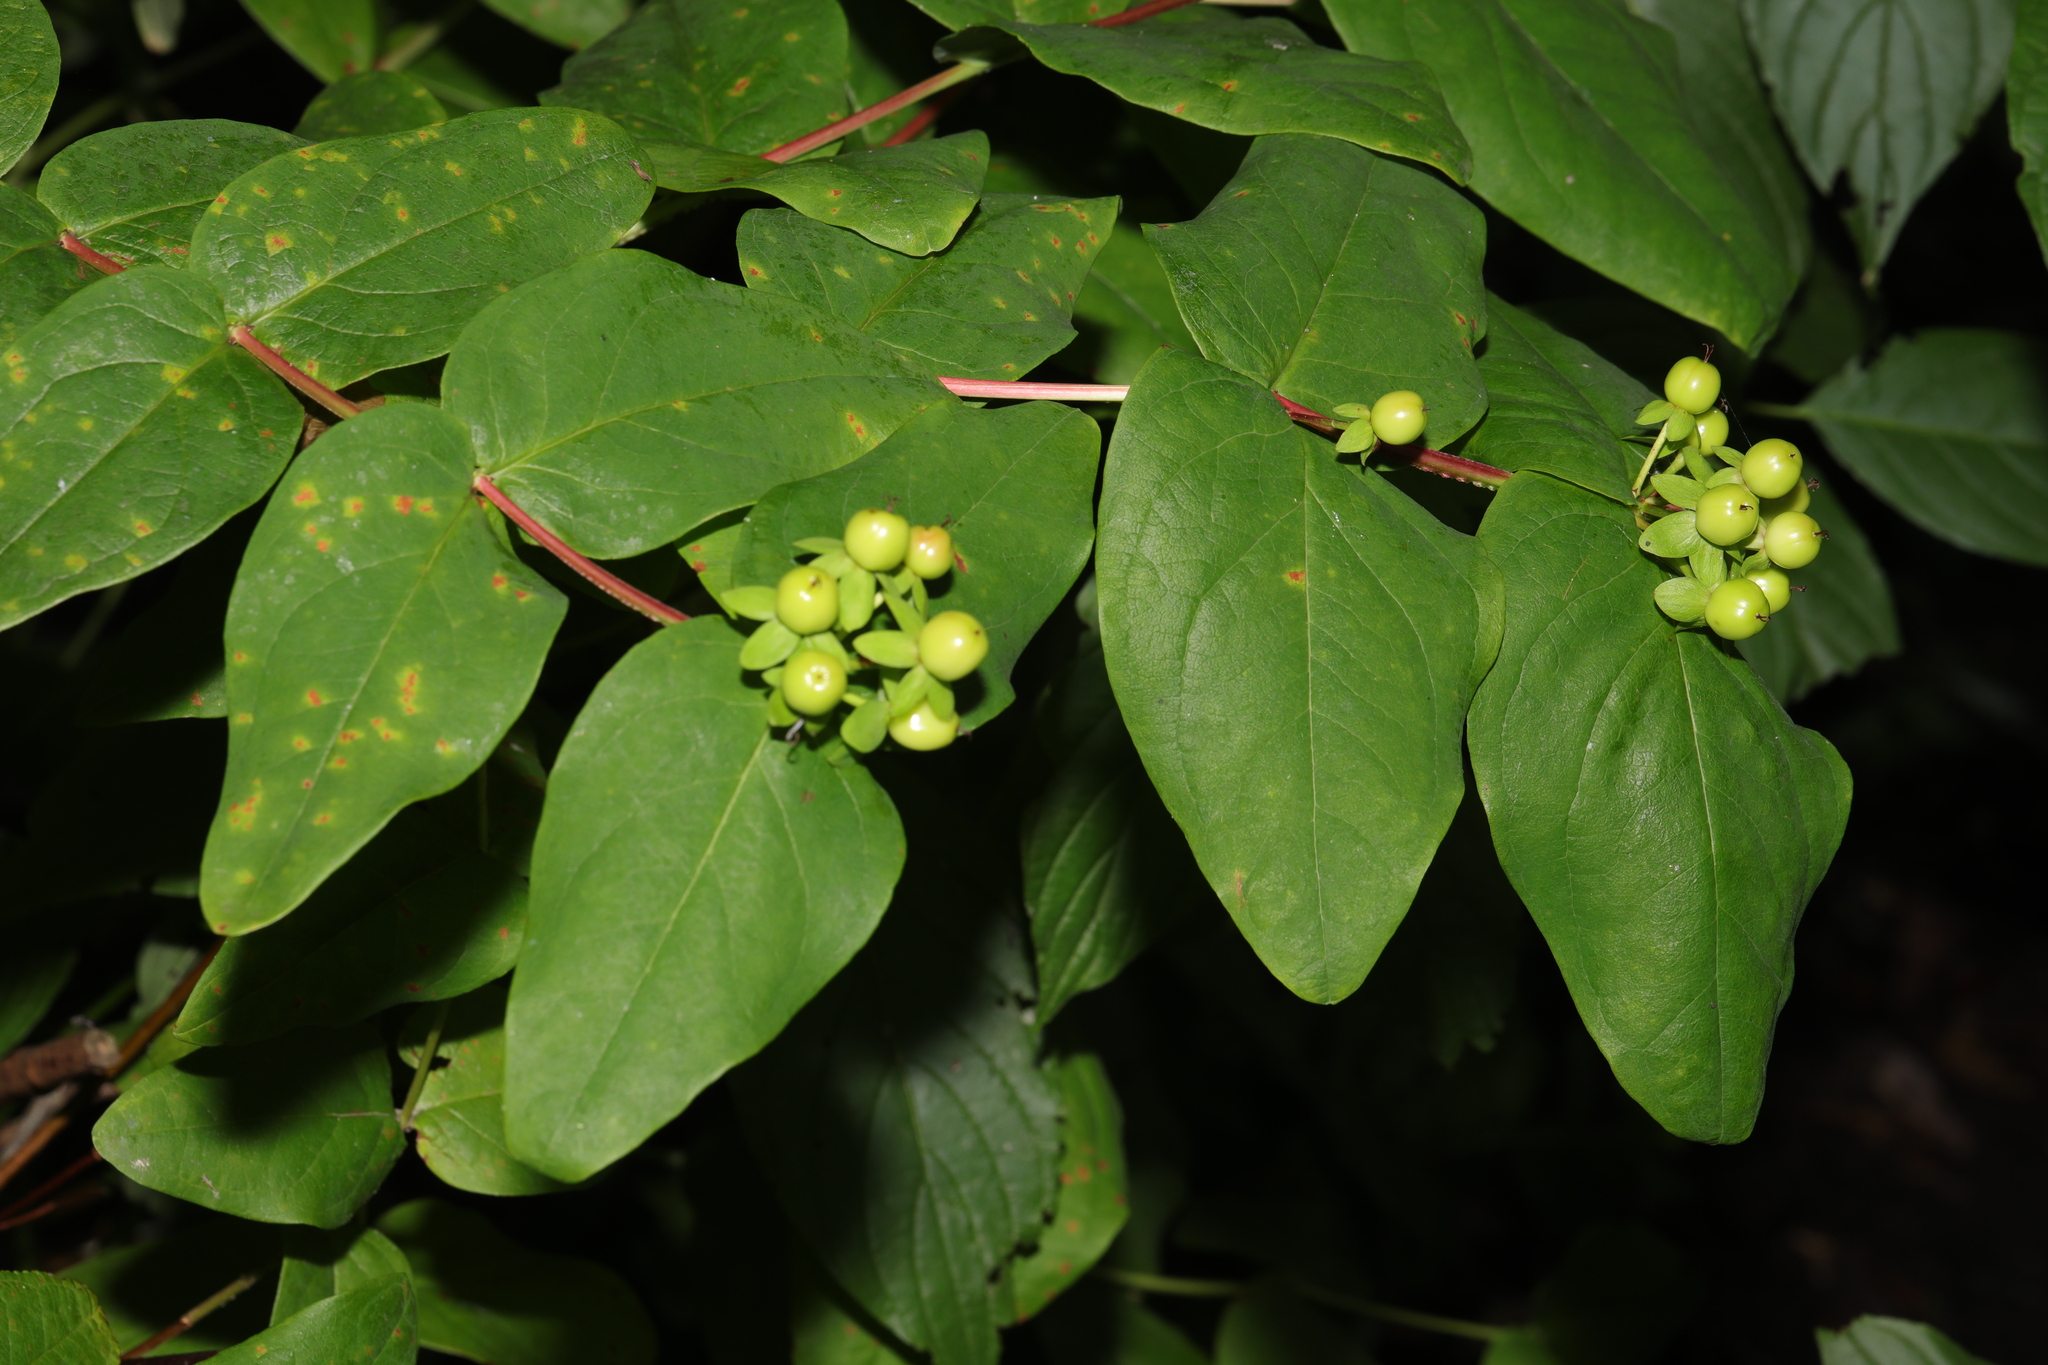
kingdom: Plantae
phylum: Tracheophyta
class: Magnoliopsida
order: Malpighiales
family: Hypericaceae
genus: Hypericum
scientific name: Hypericum androsaemum
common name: Sweet-amber
